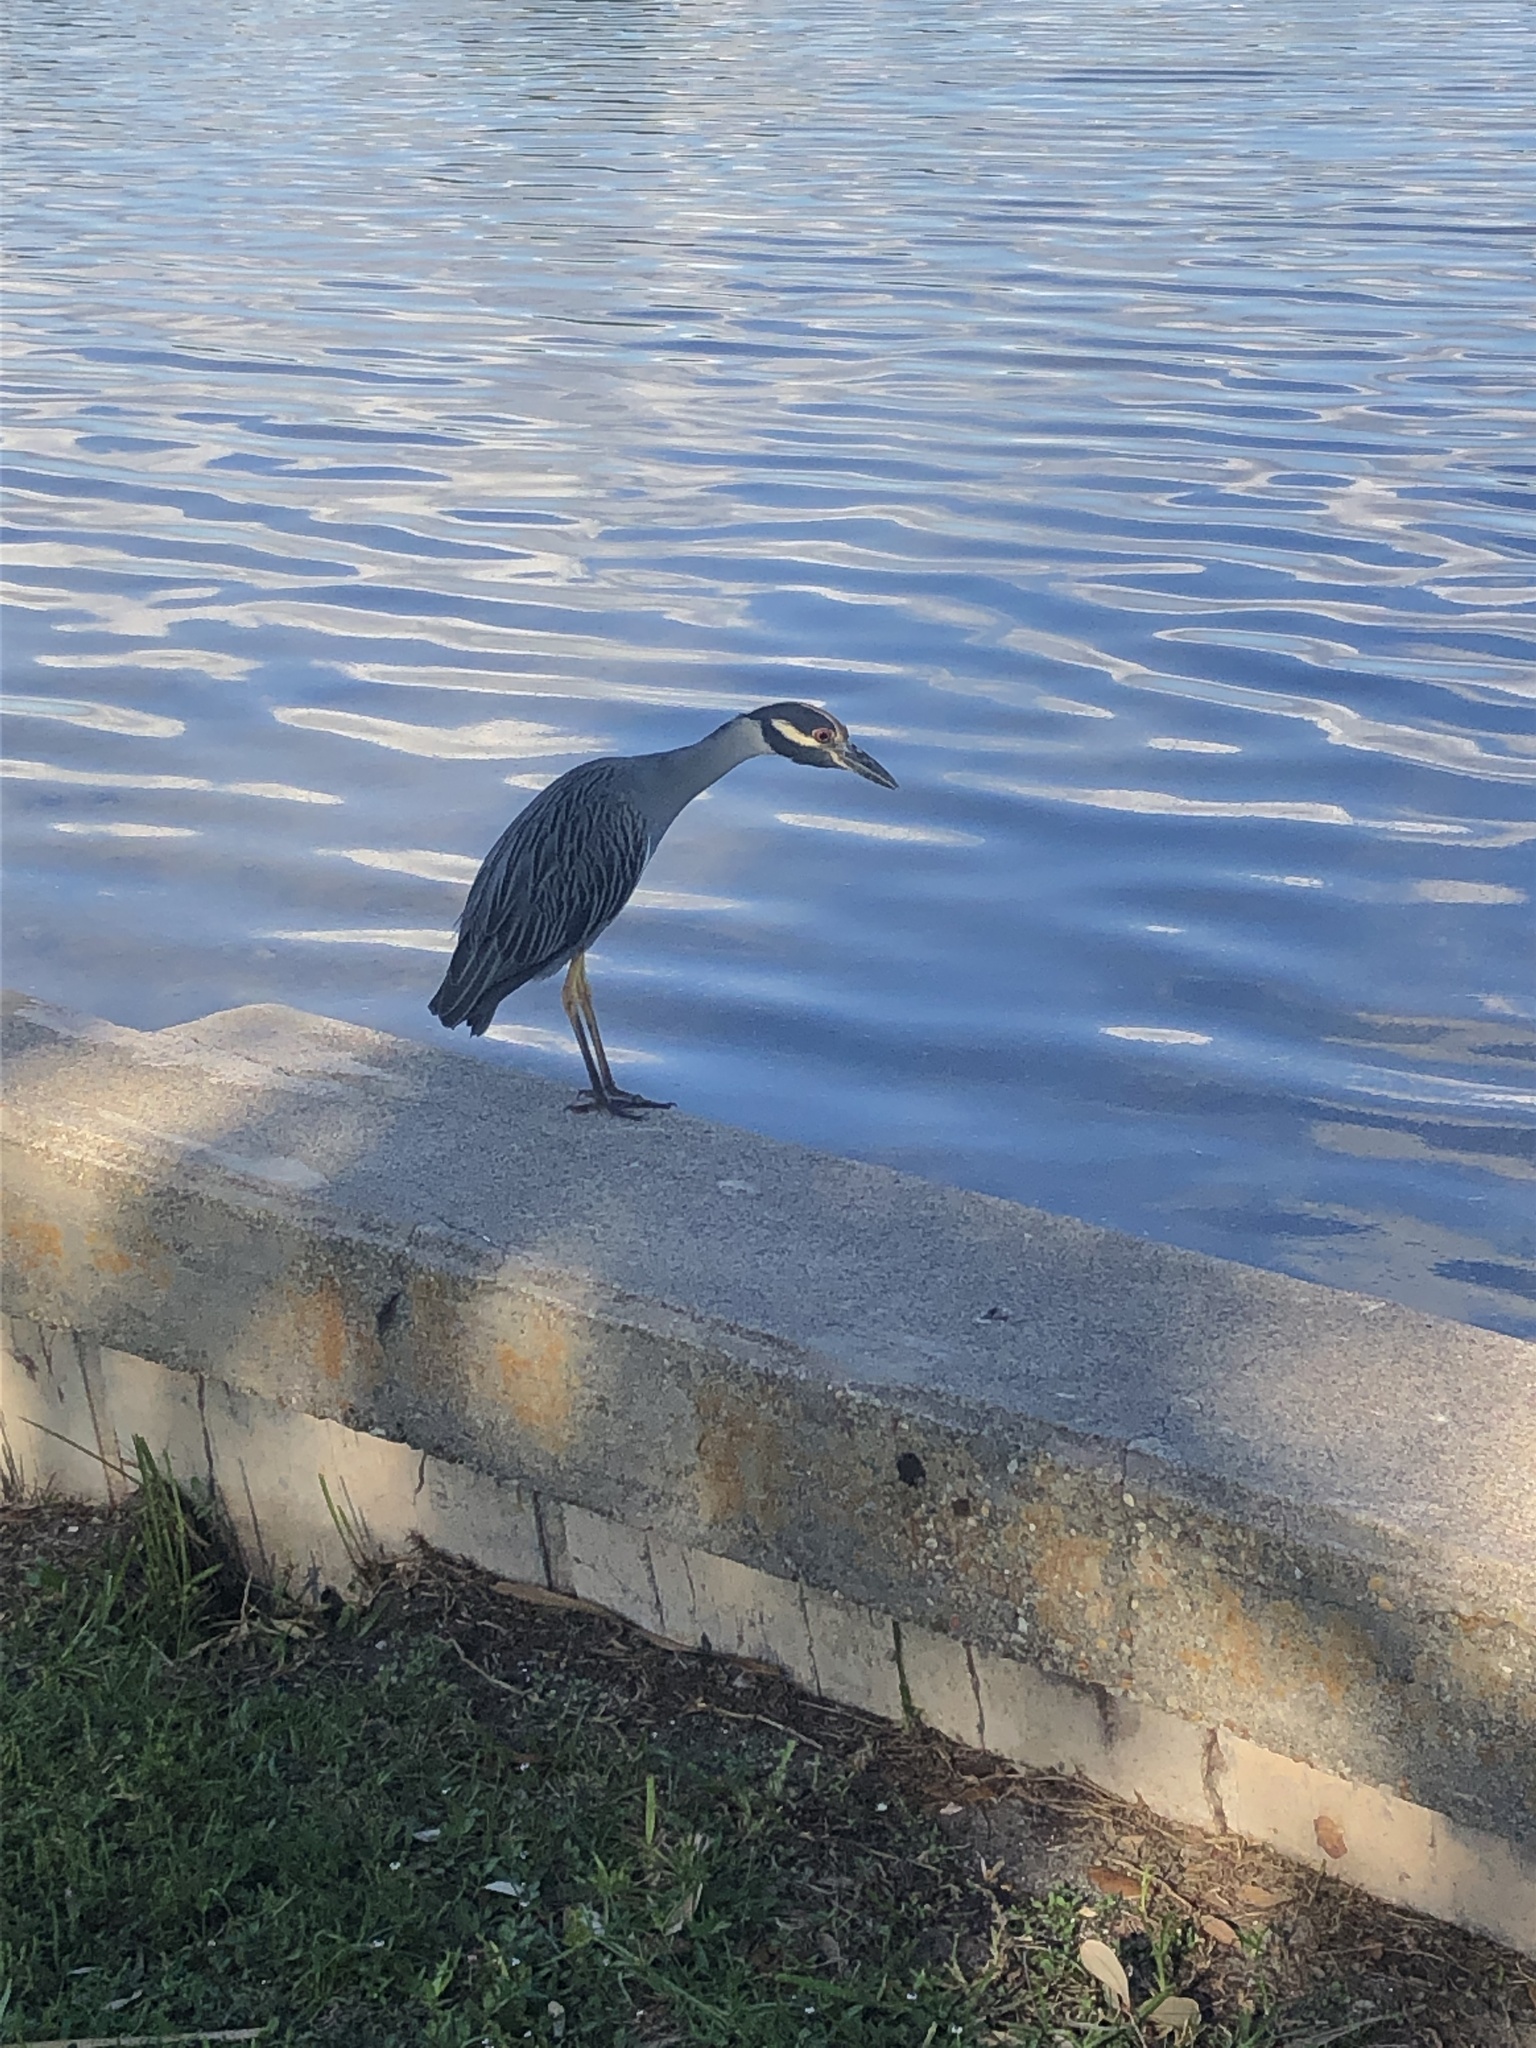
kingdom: Animalia
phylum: Chordata
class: Aves
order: Pelecaniformes
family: Ardeidae
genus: Nyctanassa
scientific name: Nyctanassa violacea
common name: Yellow-crowned night heron
